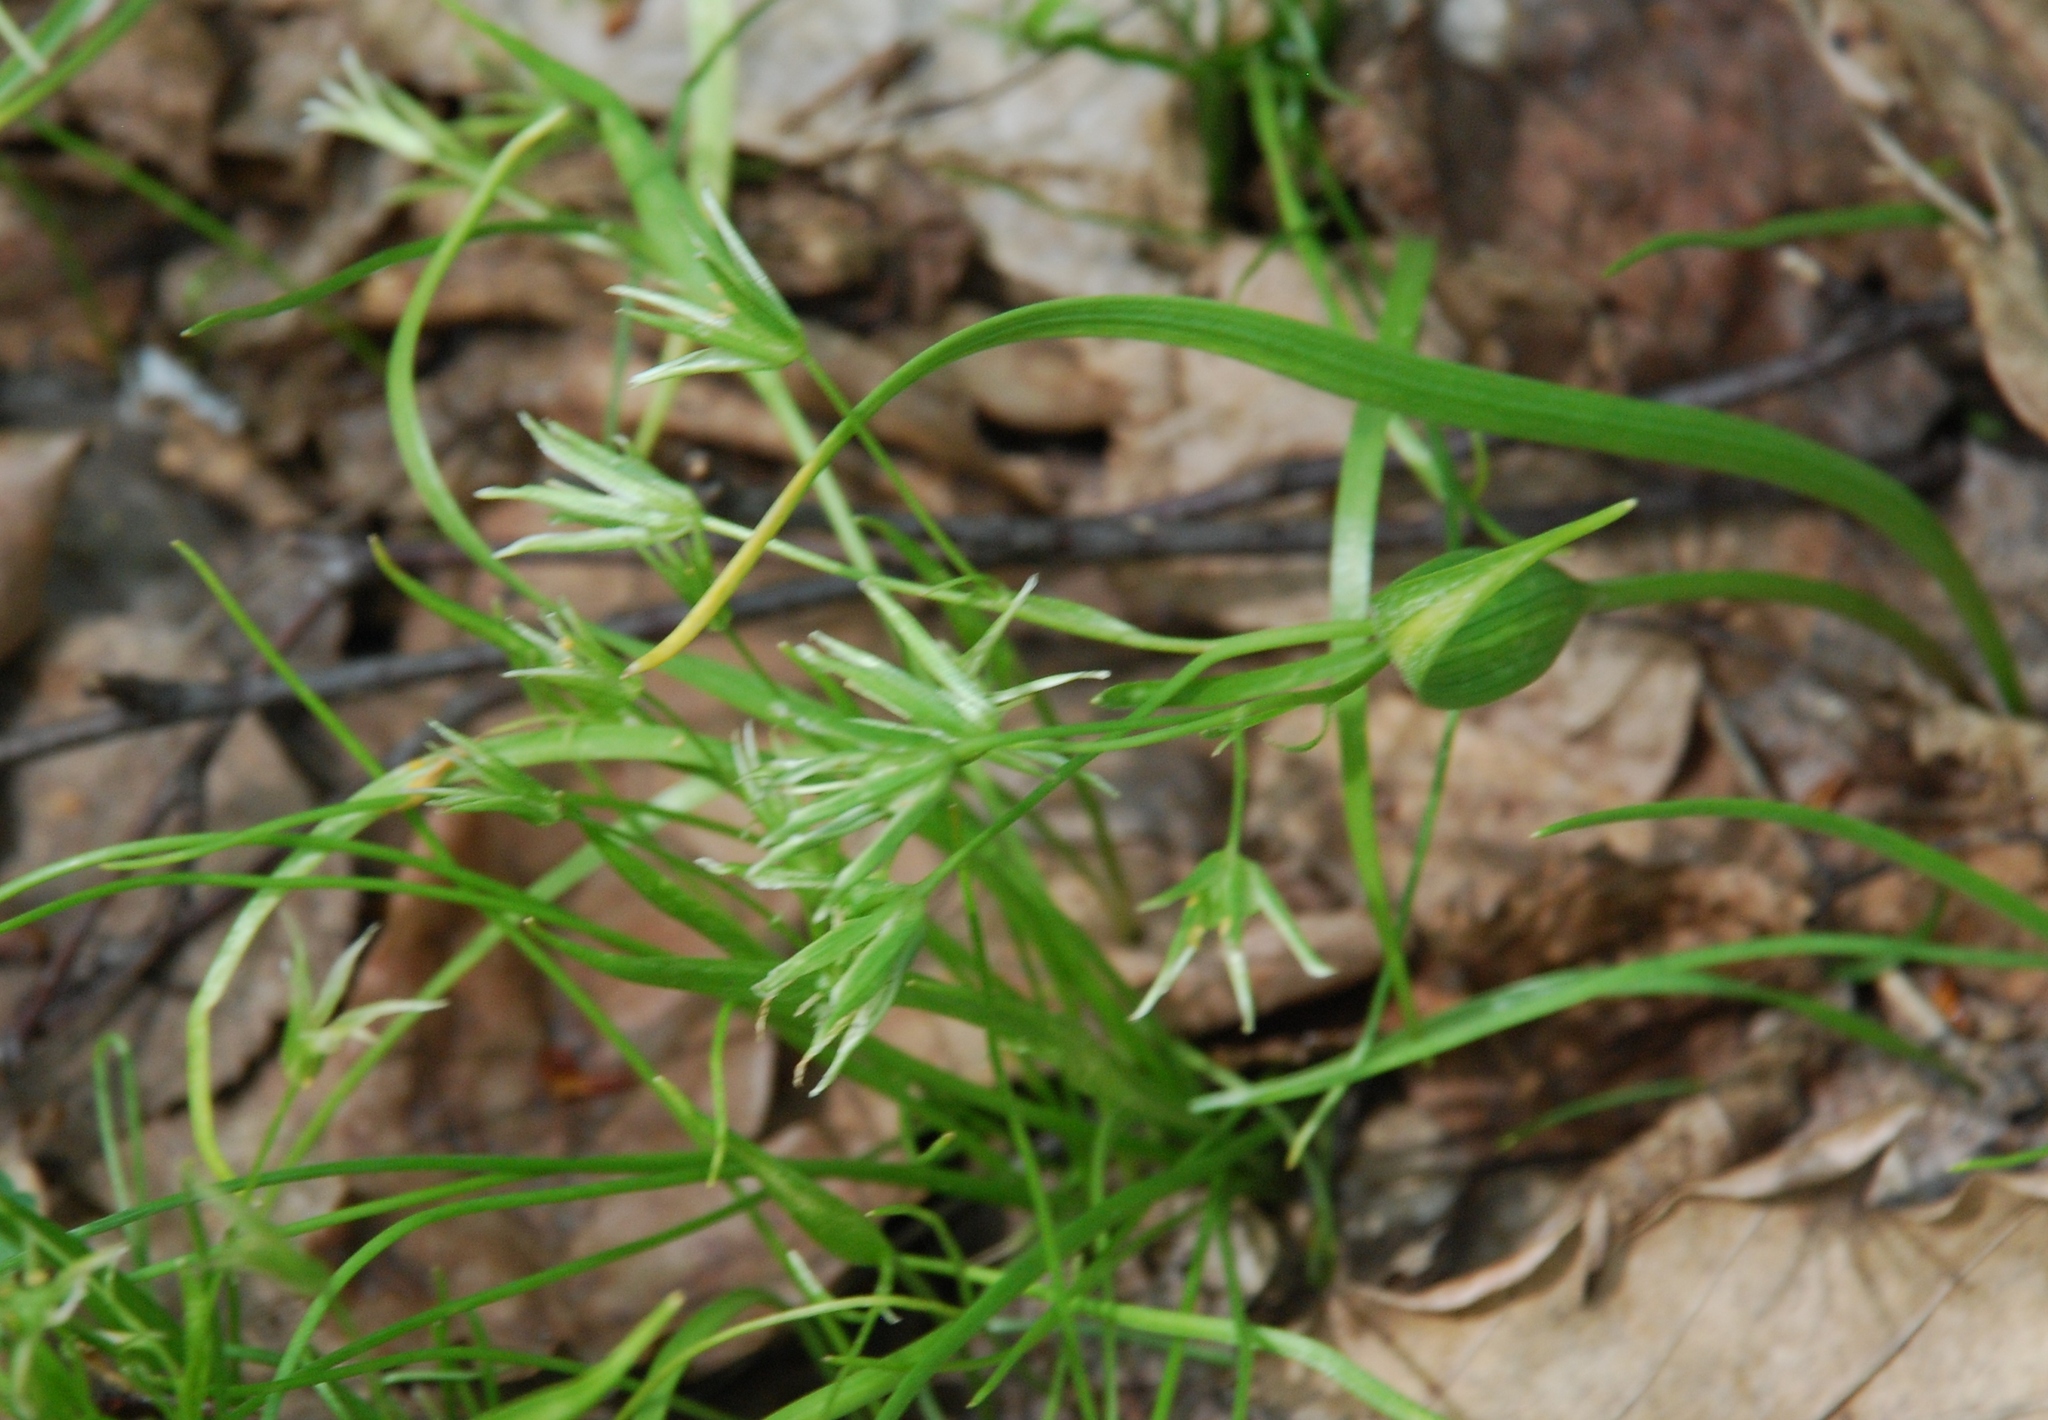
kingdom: Plantae
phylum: Tracheophyta
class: Liliopsida
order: Liliales
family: Liliaceae
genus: Gagea
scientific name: Gagea minima
